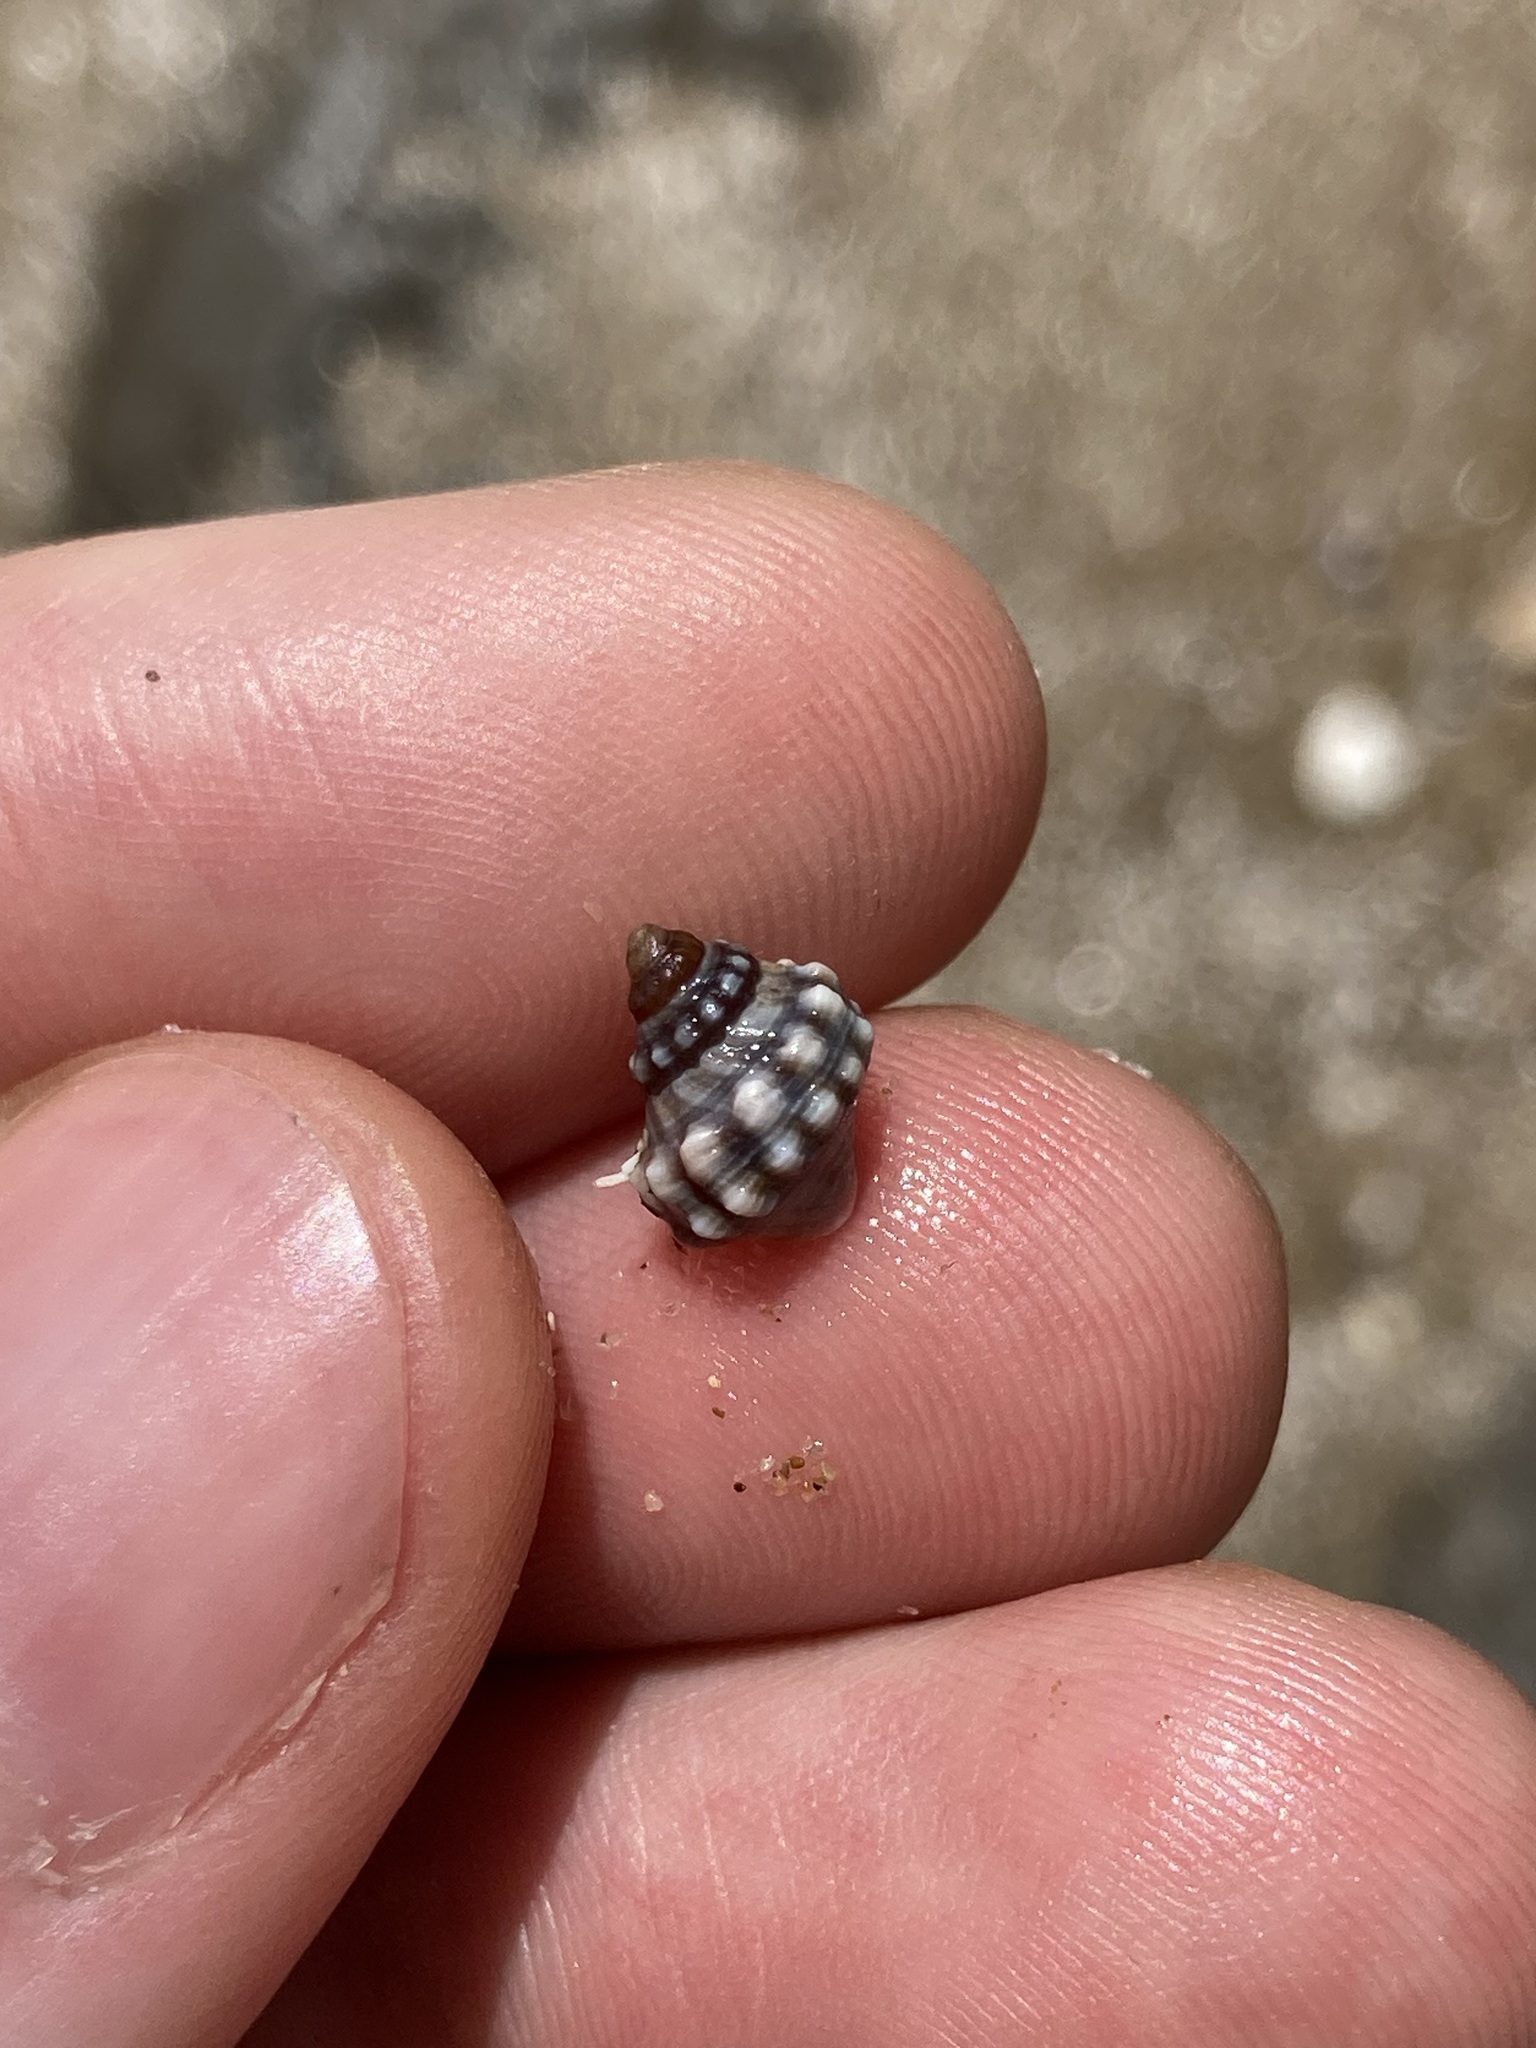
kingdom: Animalia
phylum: Mollusca
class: Gastropoda
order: Littorinimorpha
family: Littorinidae
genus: Nodilittorina
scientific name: Nodilittorina pyramidalis
